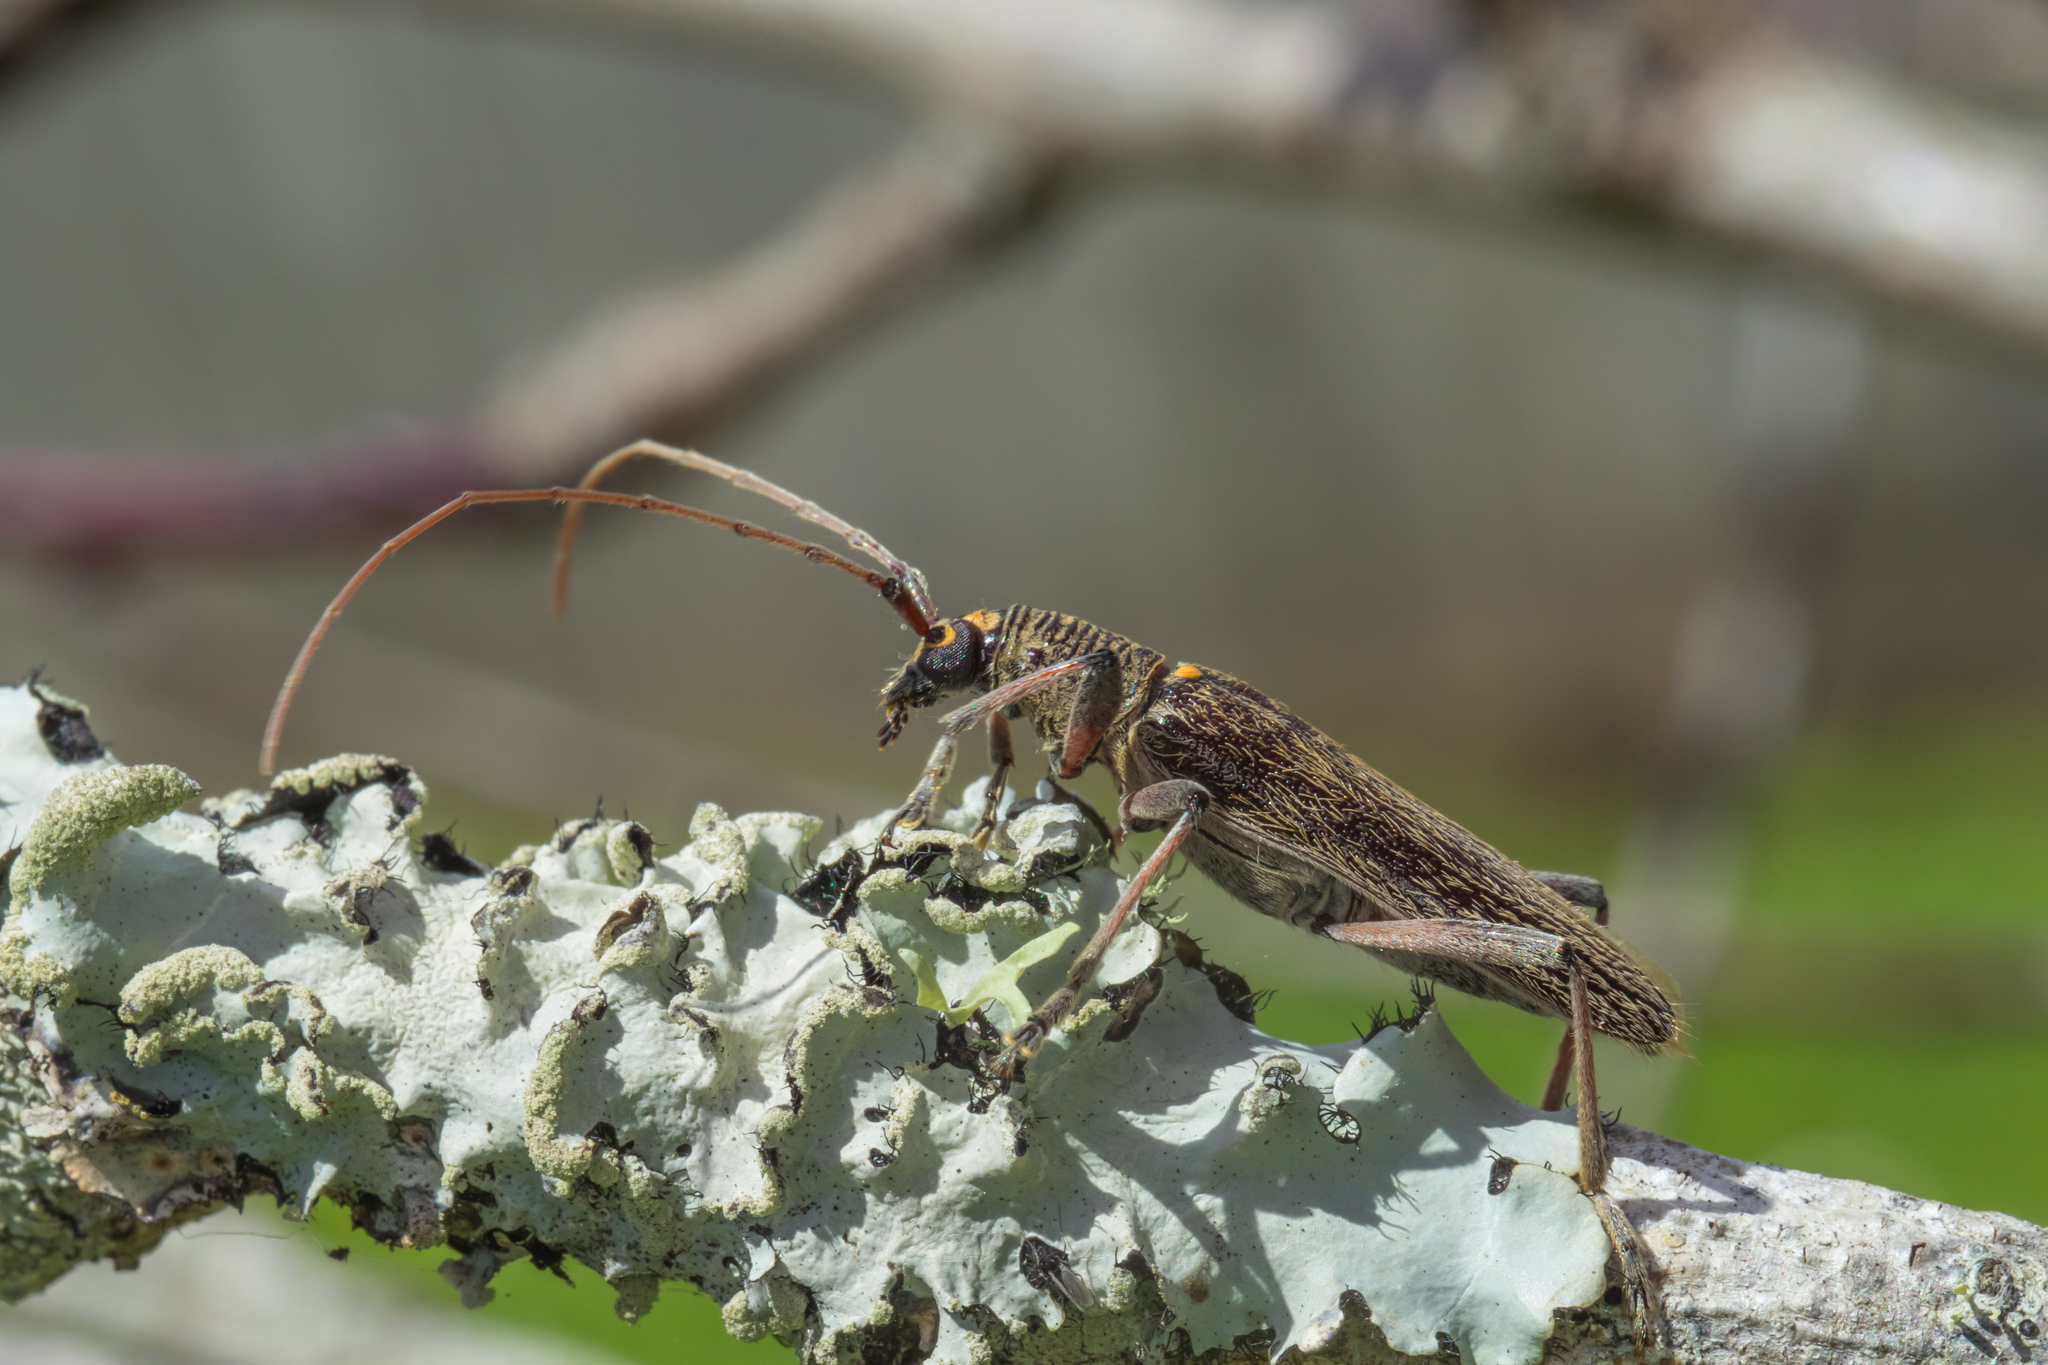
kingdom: Animalia
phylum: Arthropoda
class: Insecta
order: Coleoptera
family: Cerambycidae
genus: Oemona
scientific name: Oemona hirta
